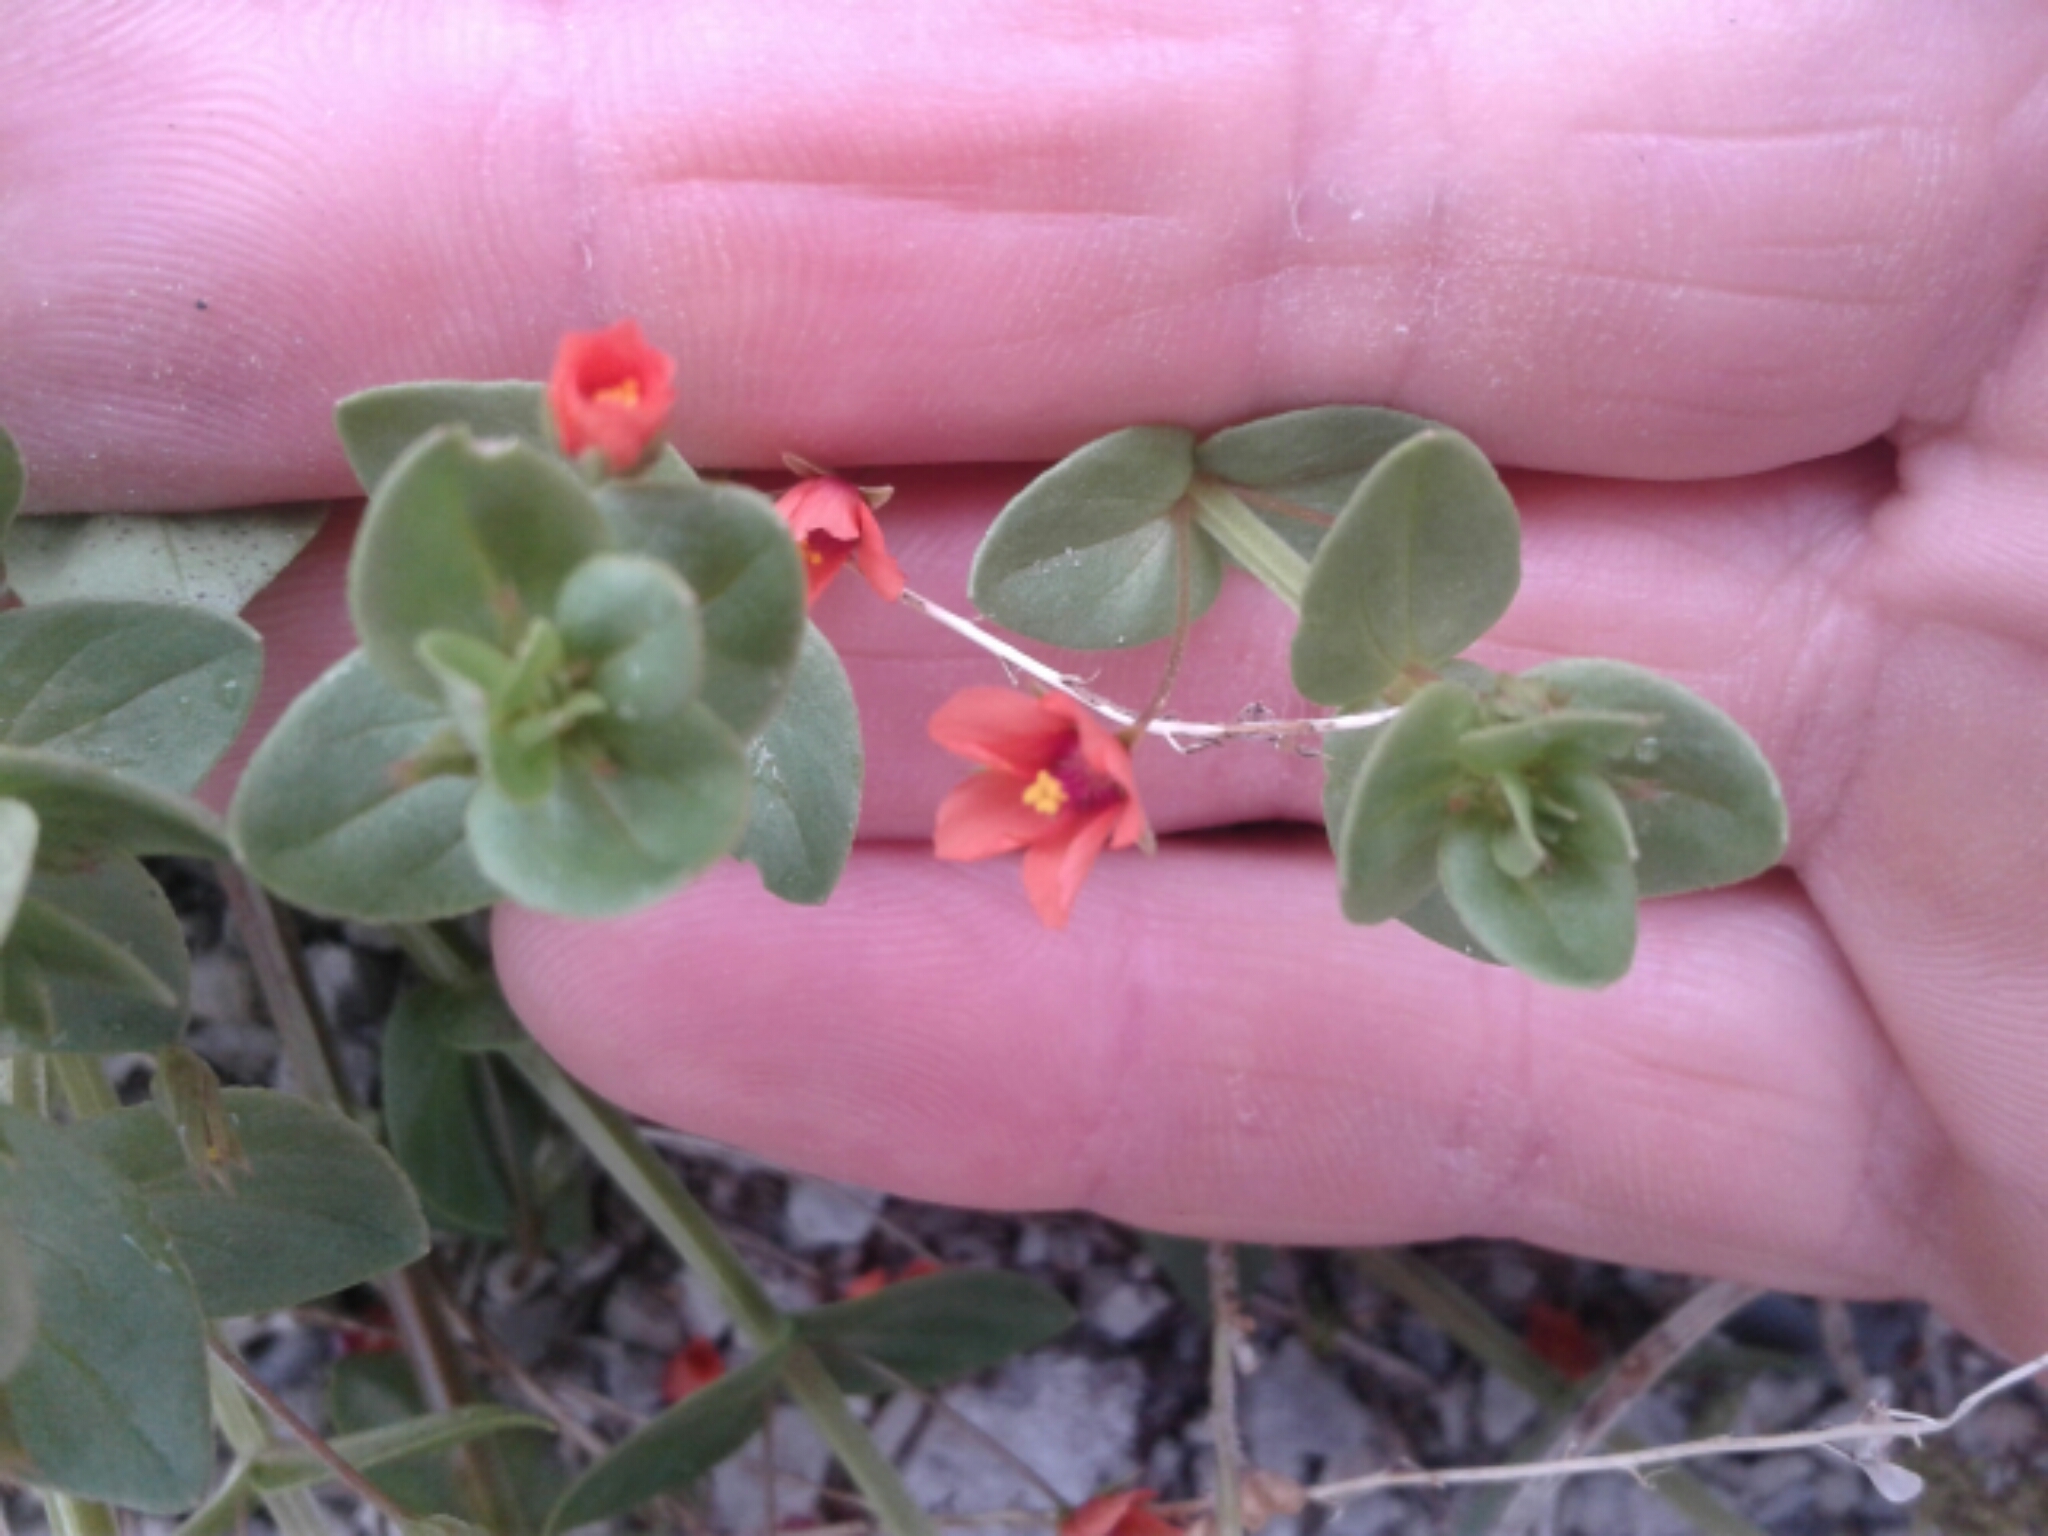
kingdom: Plantae
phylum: Tracheophyta
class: Magnoliopsida
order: Ericales
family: Primulaceae
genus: Lysimachia
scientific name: Lysimachia arvensis
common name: Scarlet pimpernel
